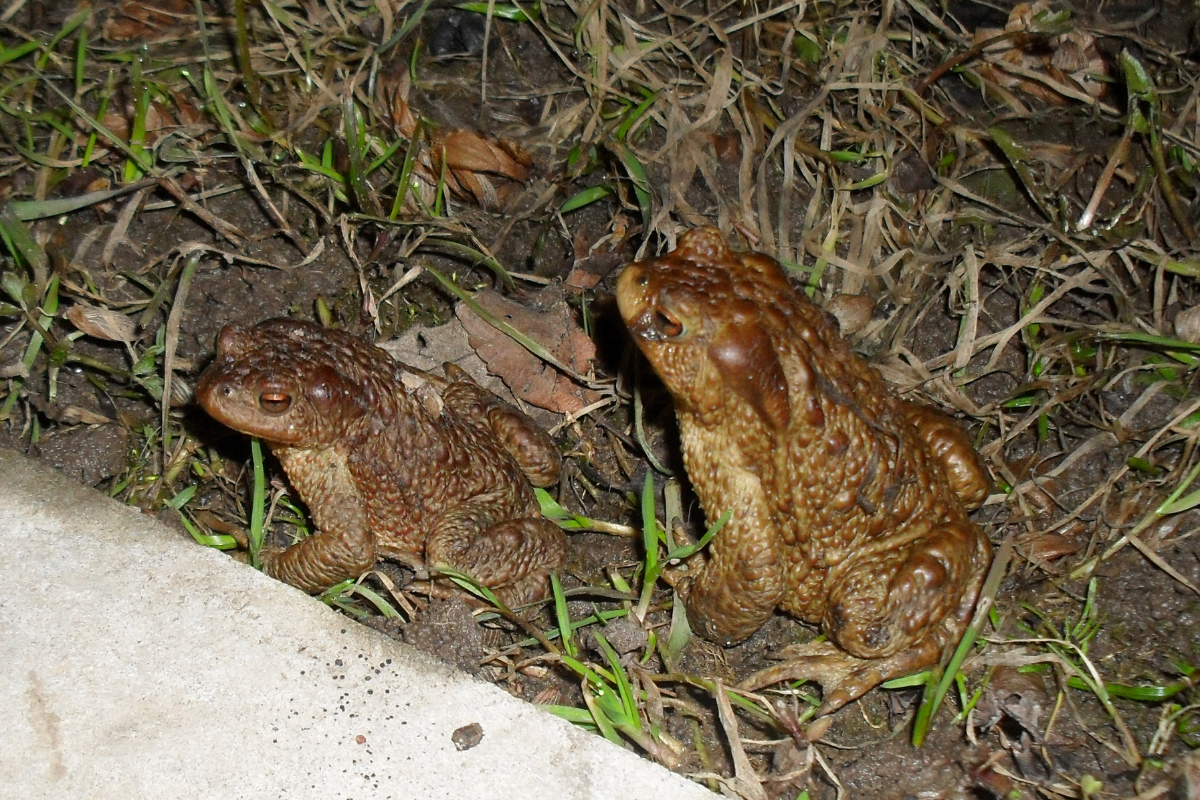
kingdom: Animalia
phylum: Chordata
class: Amphibia
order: Anura
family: Bufonidae
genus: Bufo
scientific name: Bufo bufo
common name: Common toad
